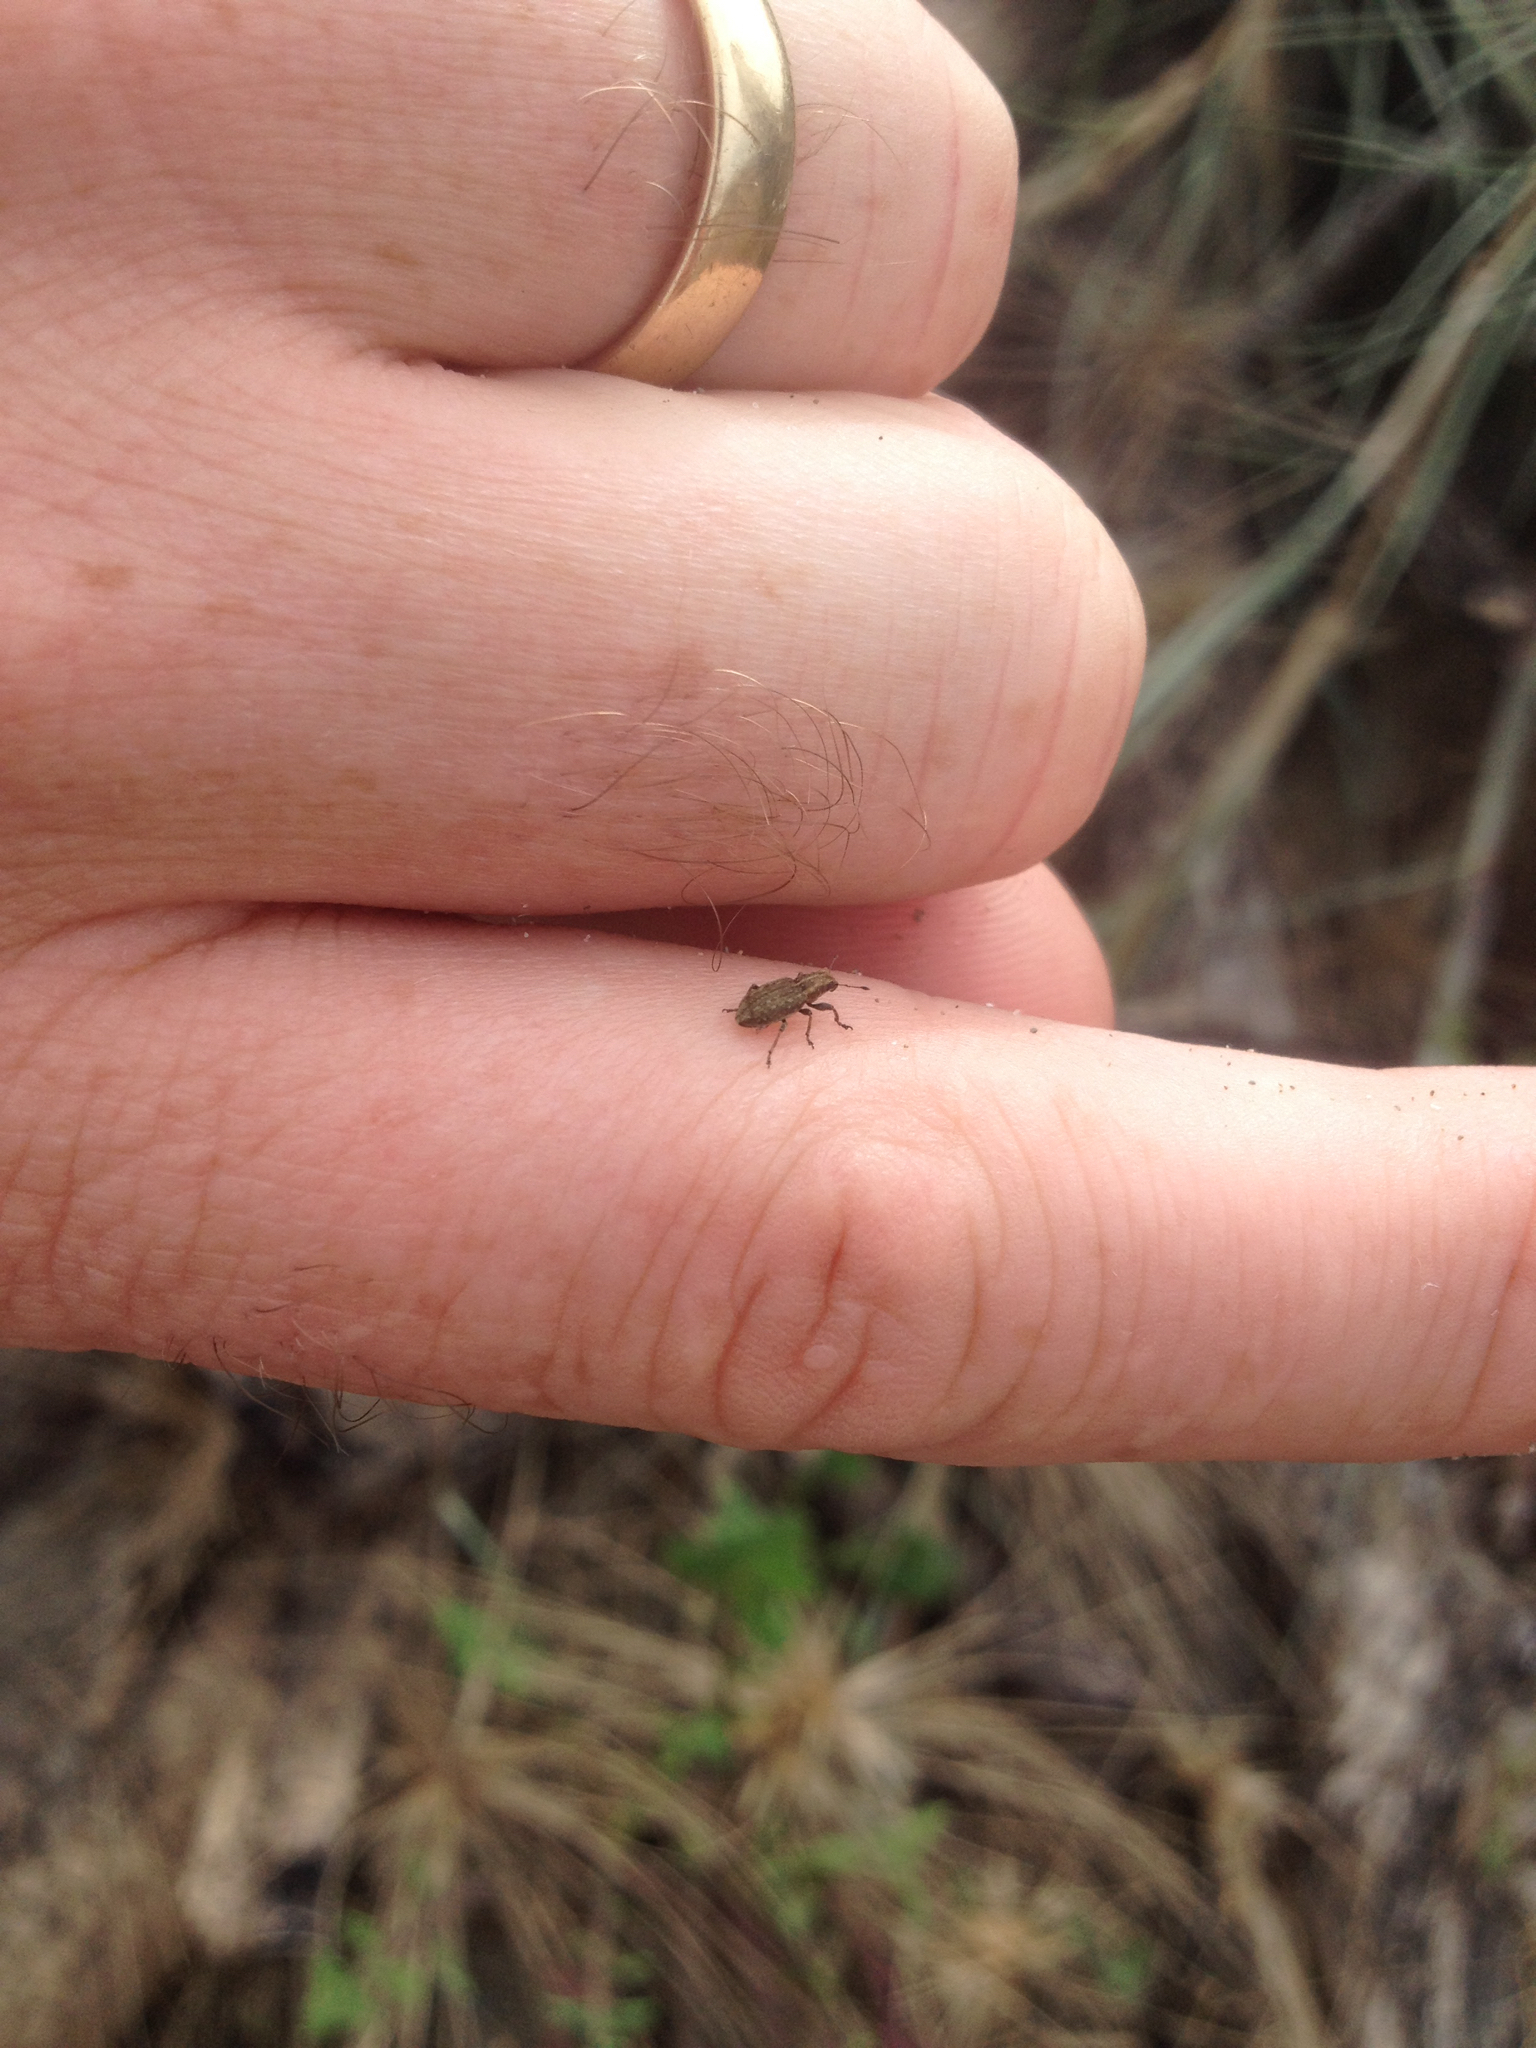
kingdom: Animalia
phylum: Arthropoda
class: Insecta
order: Coleoptera
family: Curculionidae
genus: Sitona
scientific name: Sitona obsoletus
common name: Weevil
